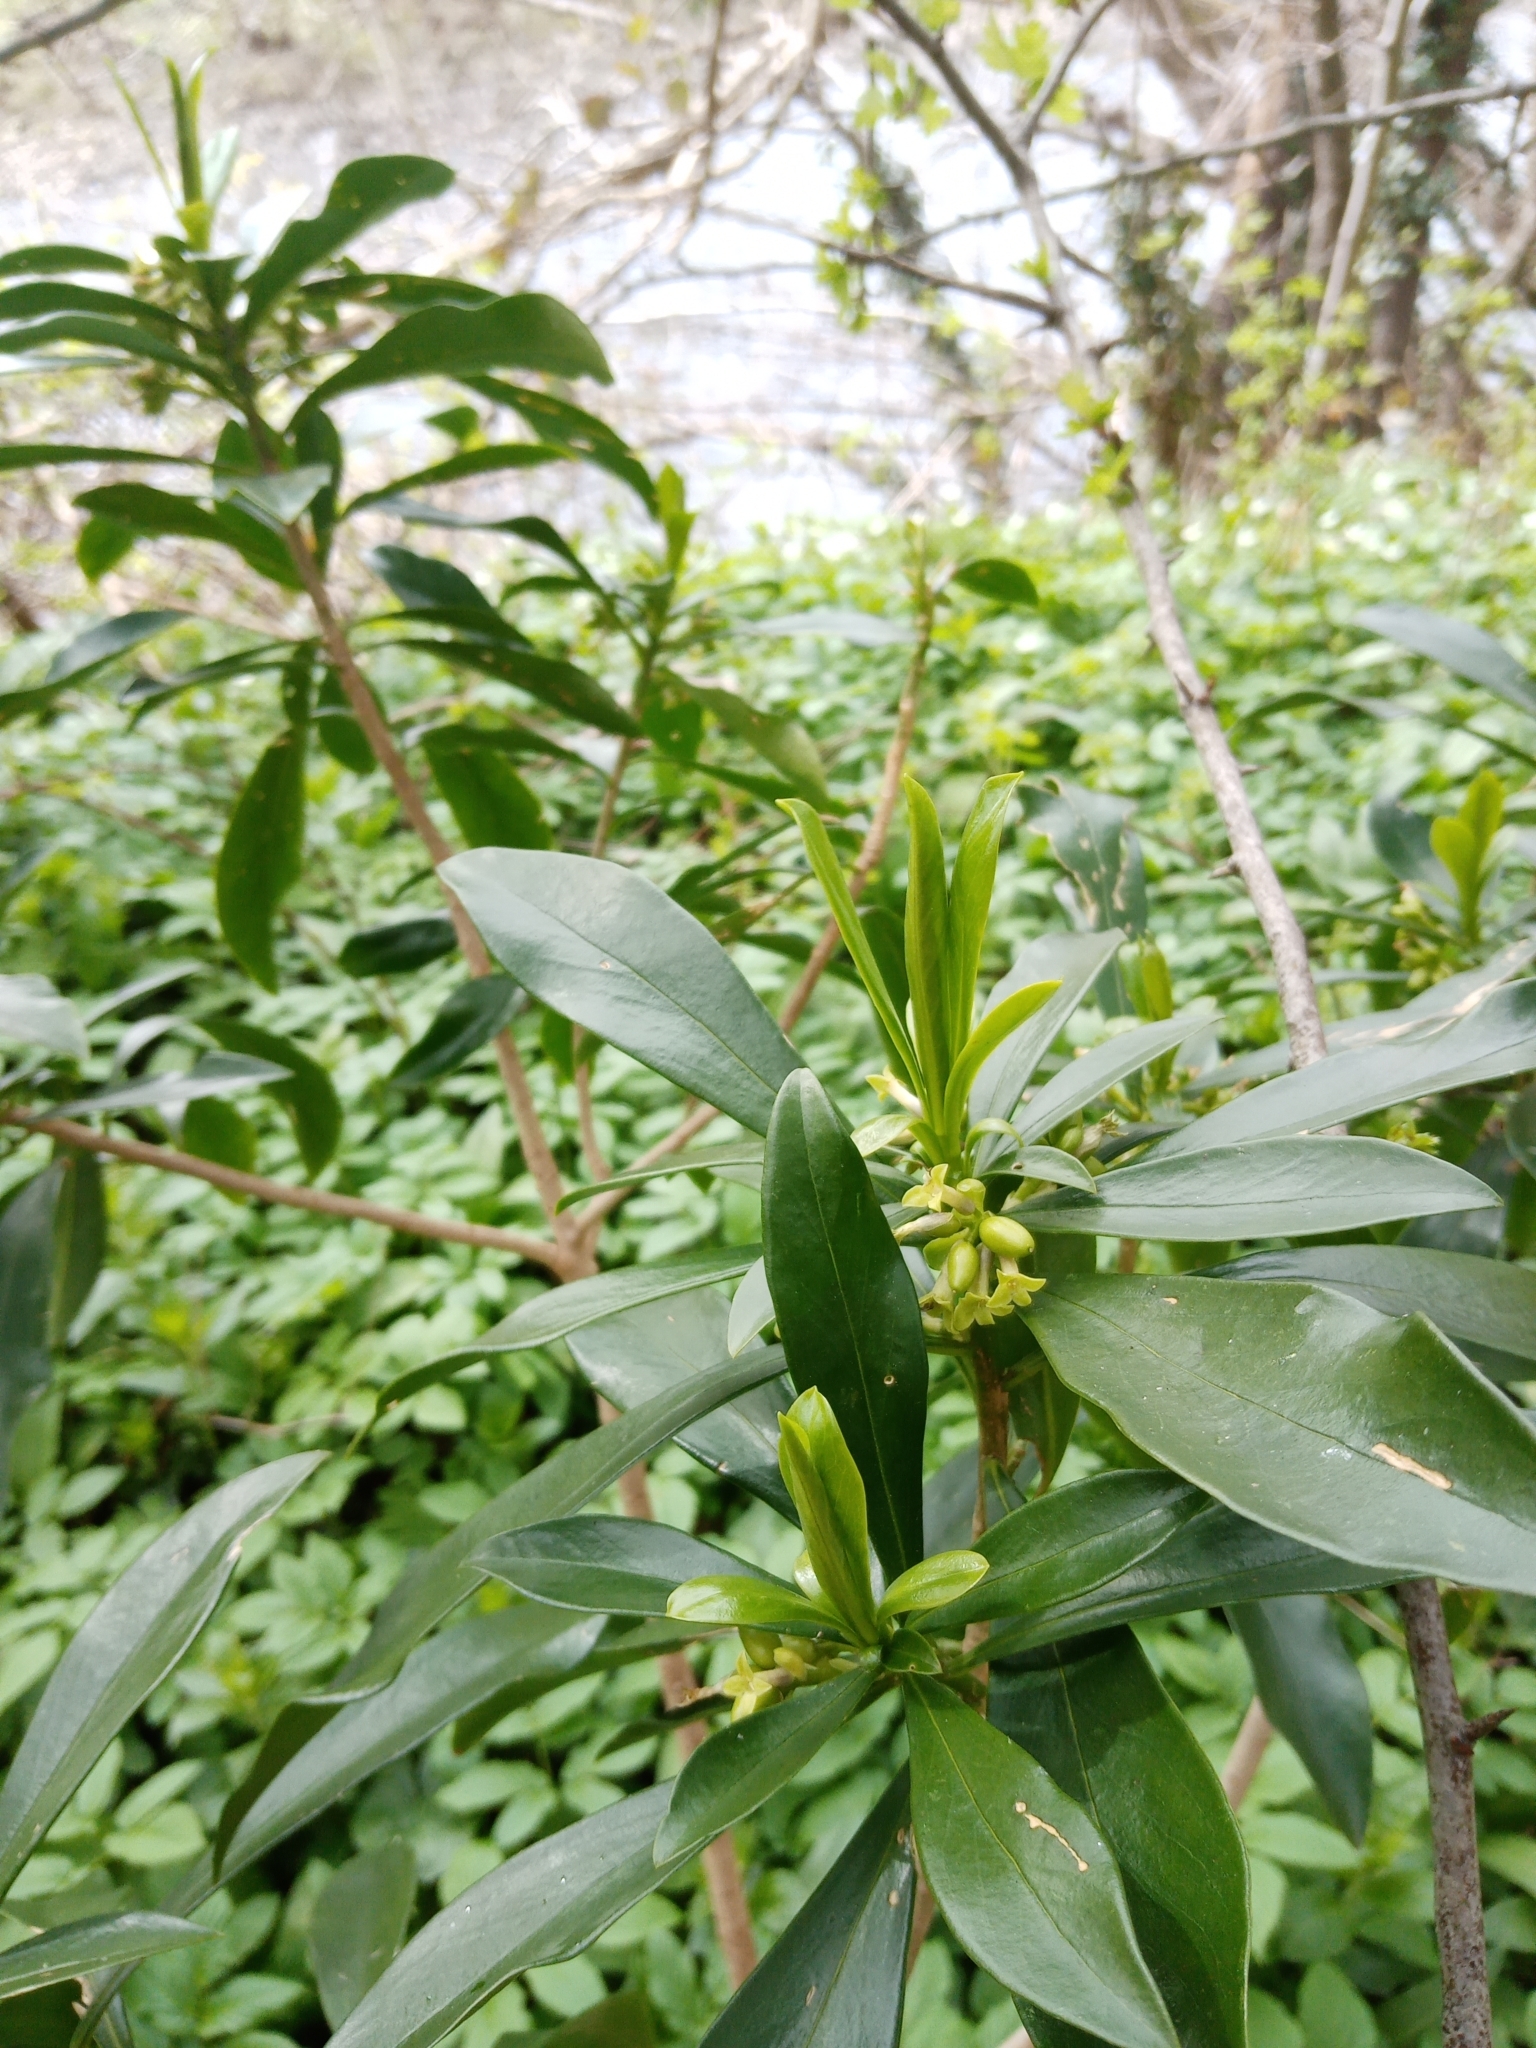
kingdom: Plantae
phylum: Tracheophyta
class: Magnoliopsida
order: Malvales
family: Thymelaeaceae
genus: Daphne
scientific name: Daphne laureola
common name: Spurge-laurel
